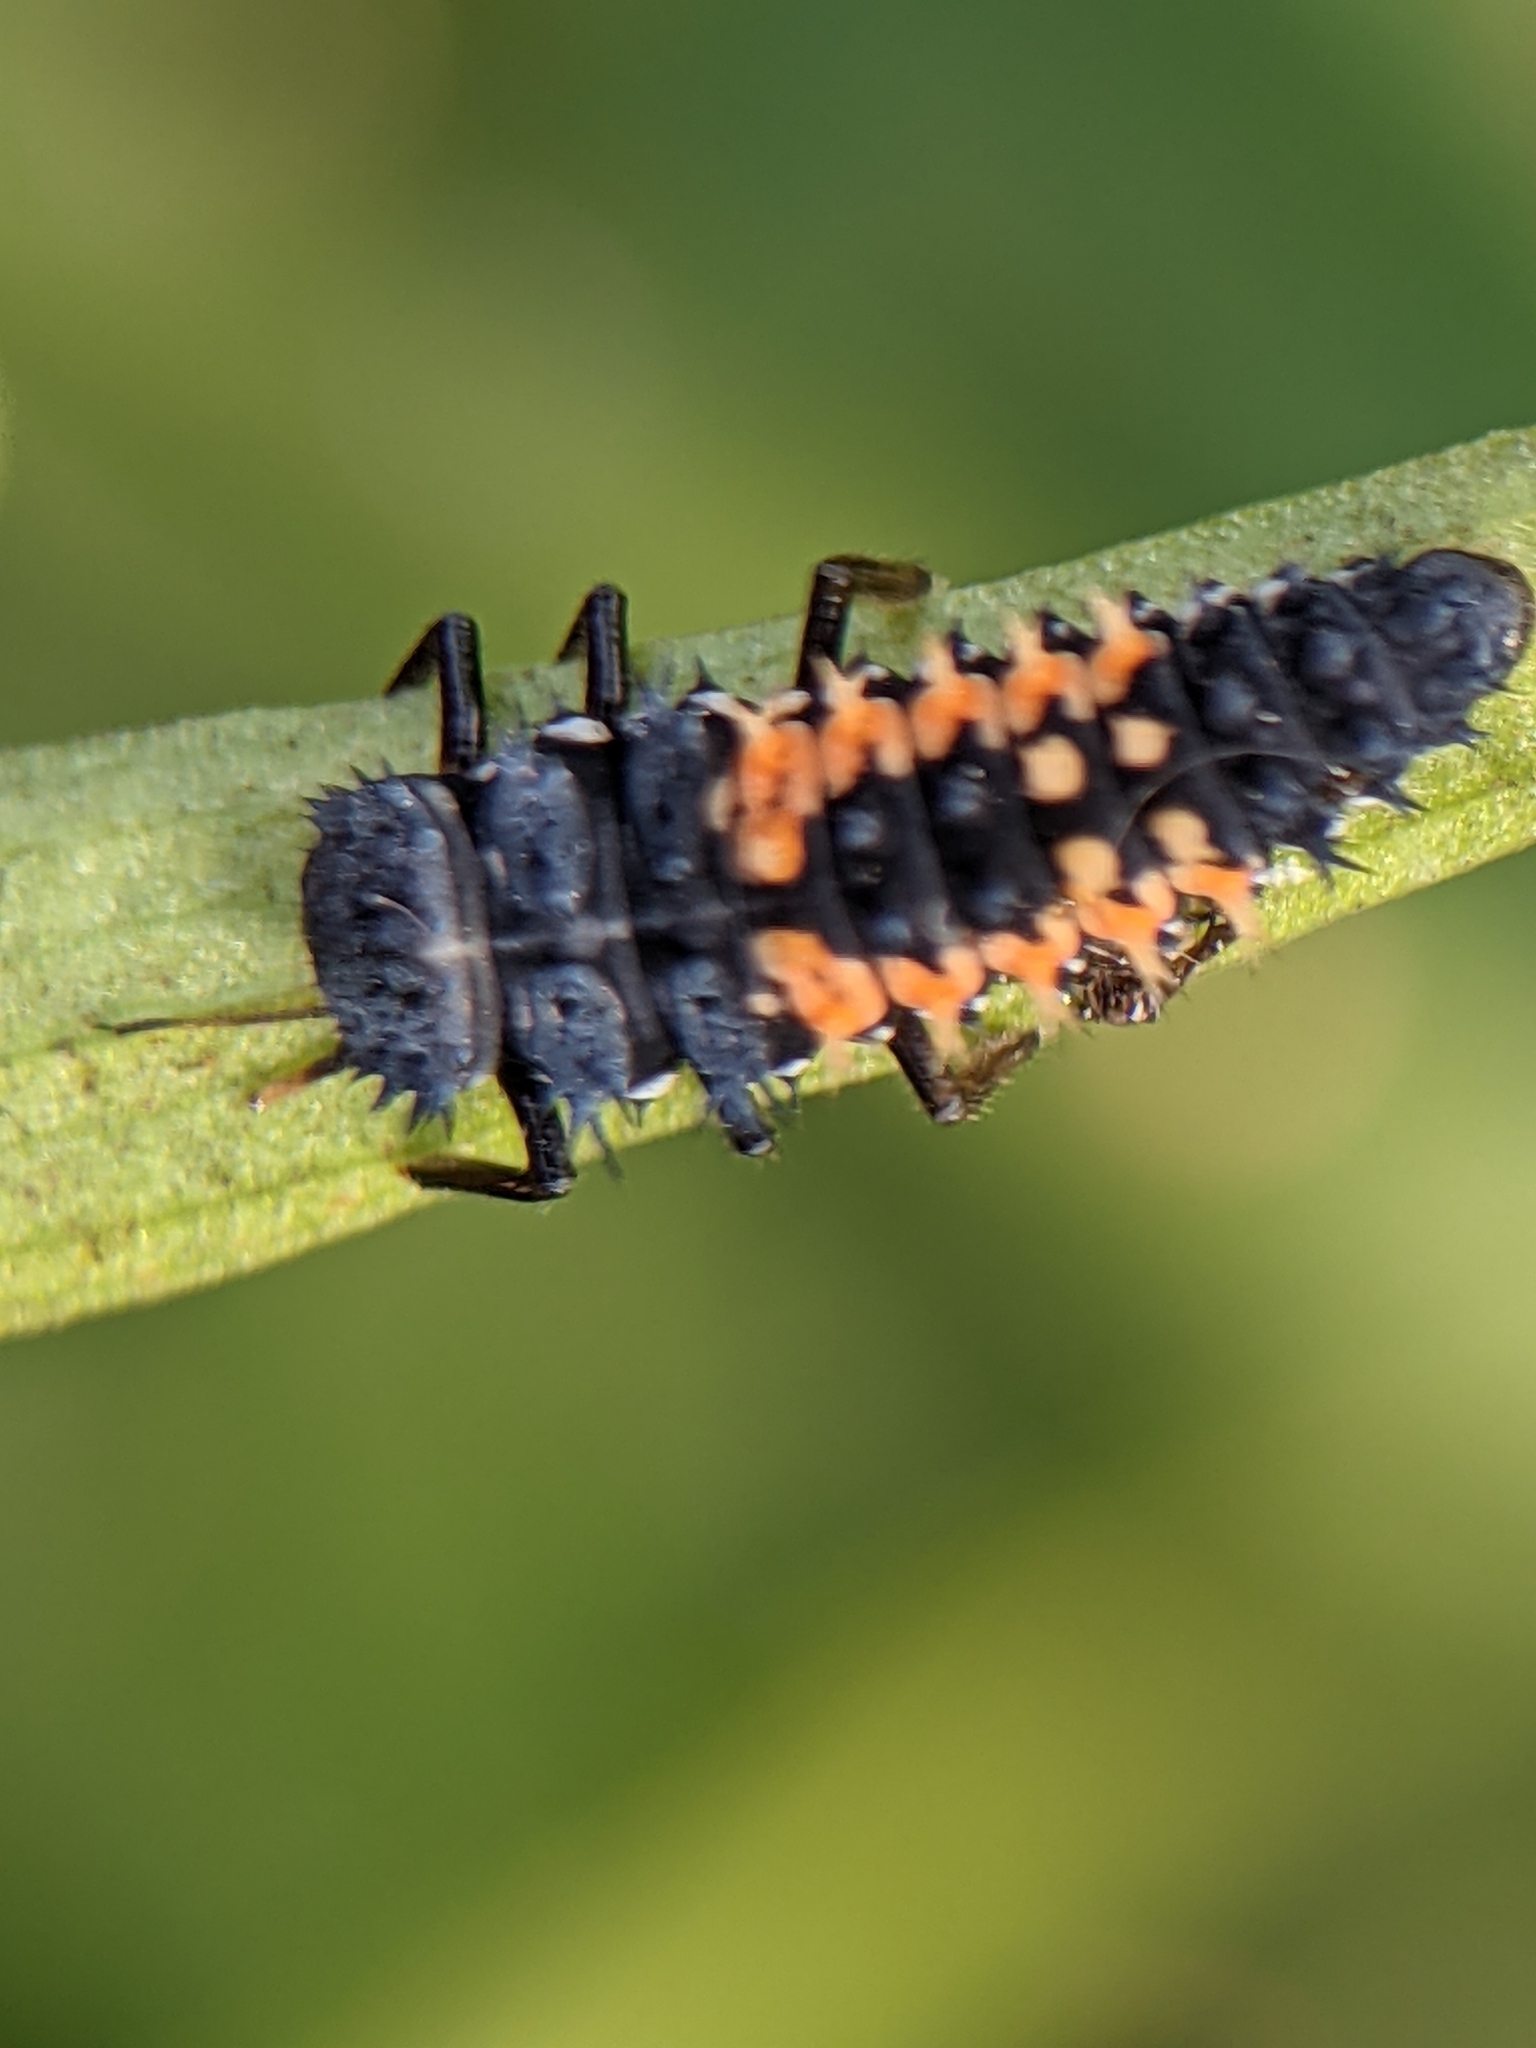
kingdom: Animalia
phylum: Arthropoda
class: Insecta
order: Coleoptera
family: Coccinellidae
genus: Harmonia
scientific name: Harmonia axyridis
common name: Harlequin ladybird
